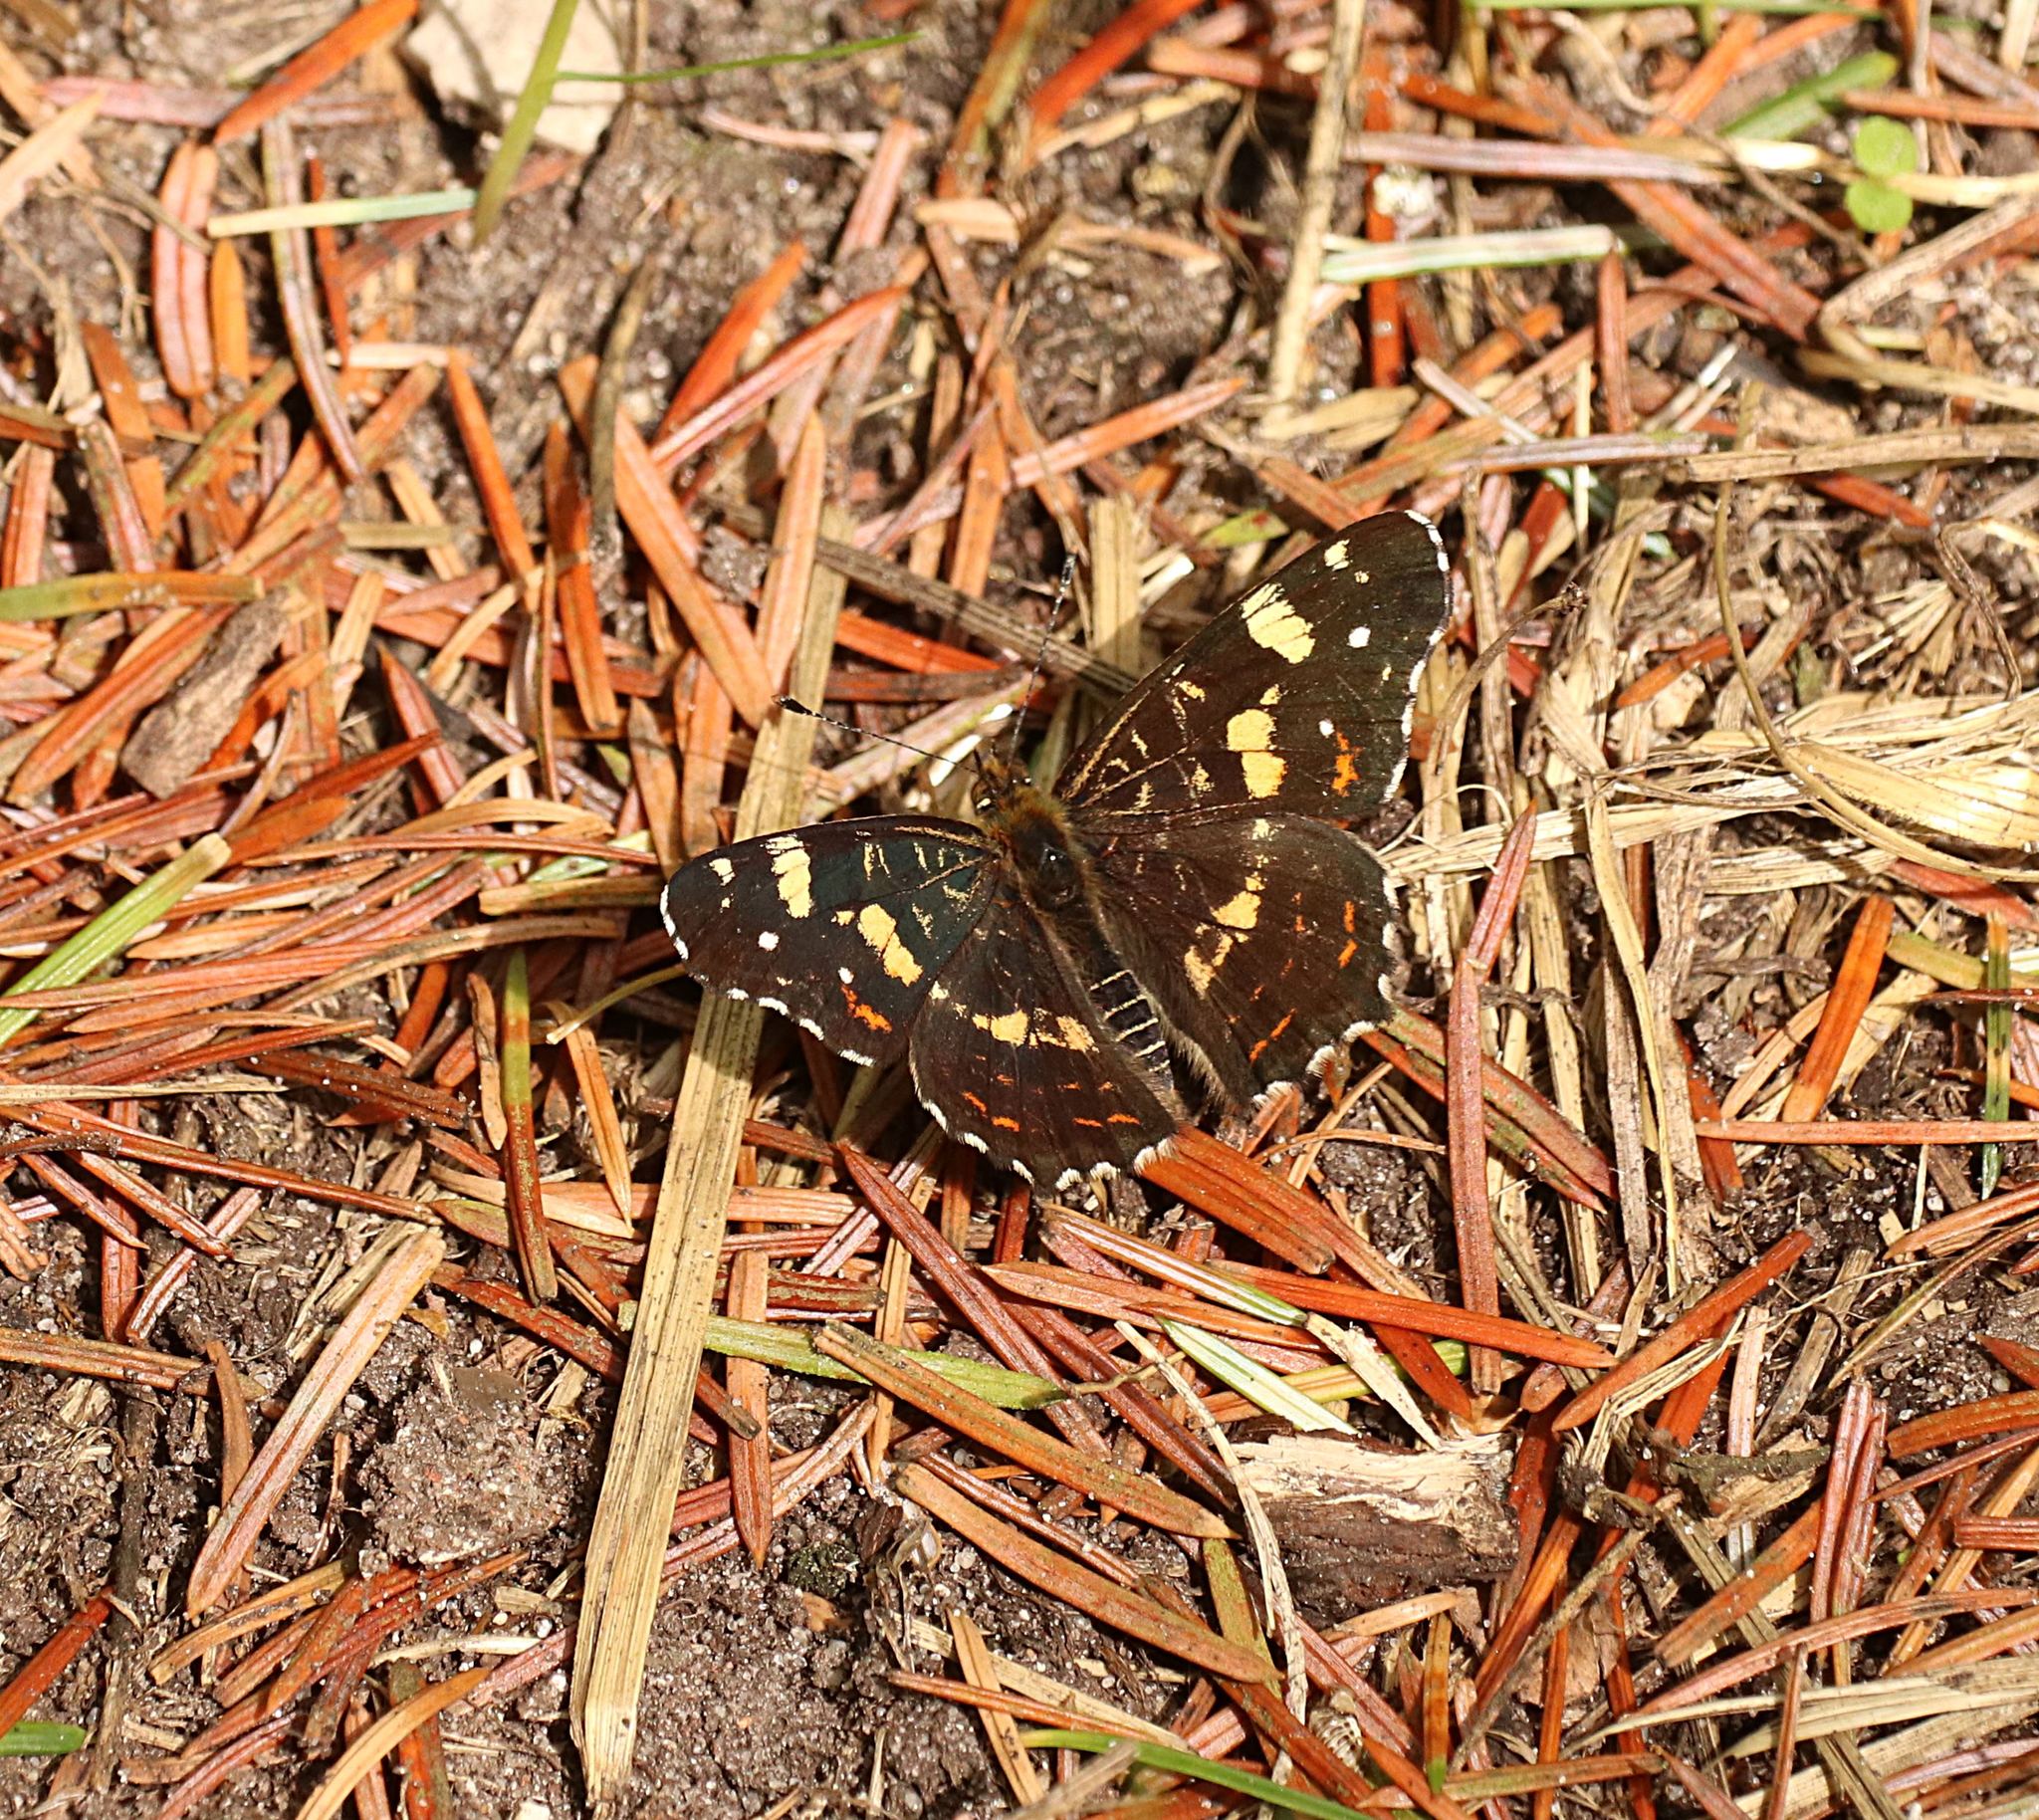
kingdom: Animalia
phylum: Arthropoda
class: Insecta
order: Lepidoptera
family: Nymphalidae
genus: Araschnia
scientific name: Araschnia levana
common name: Map butterfly
